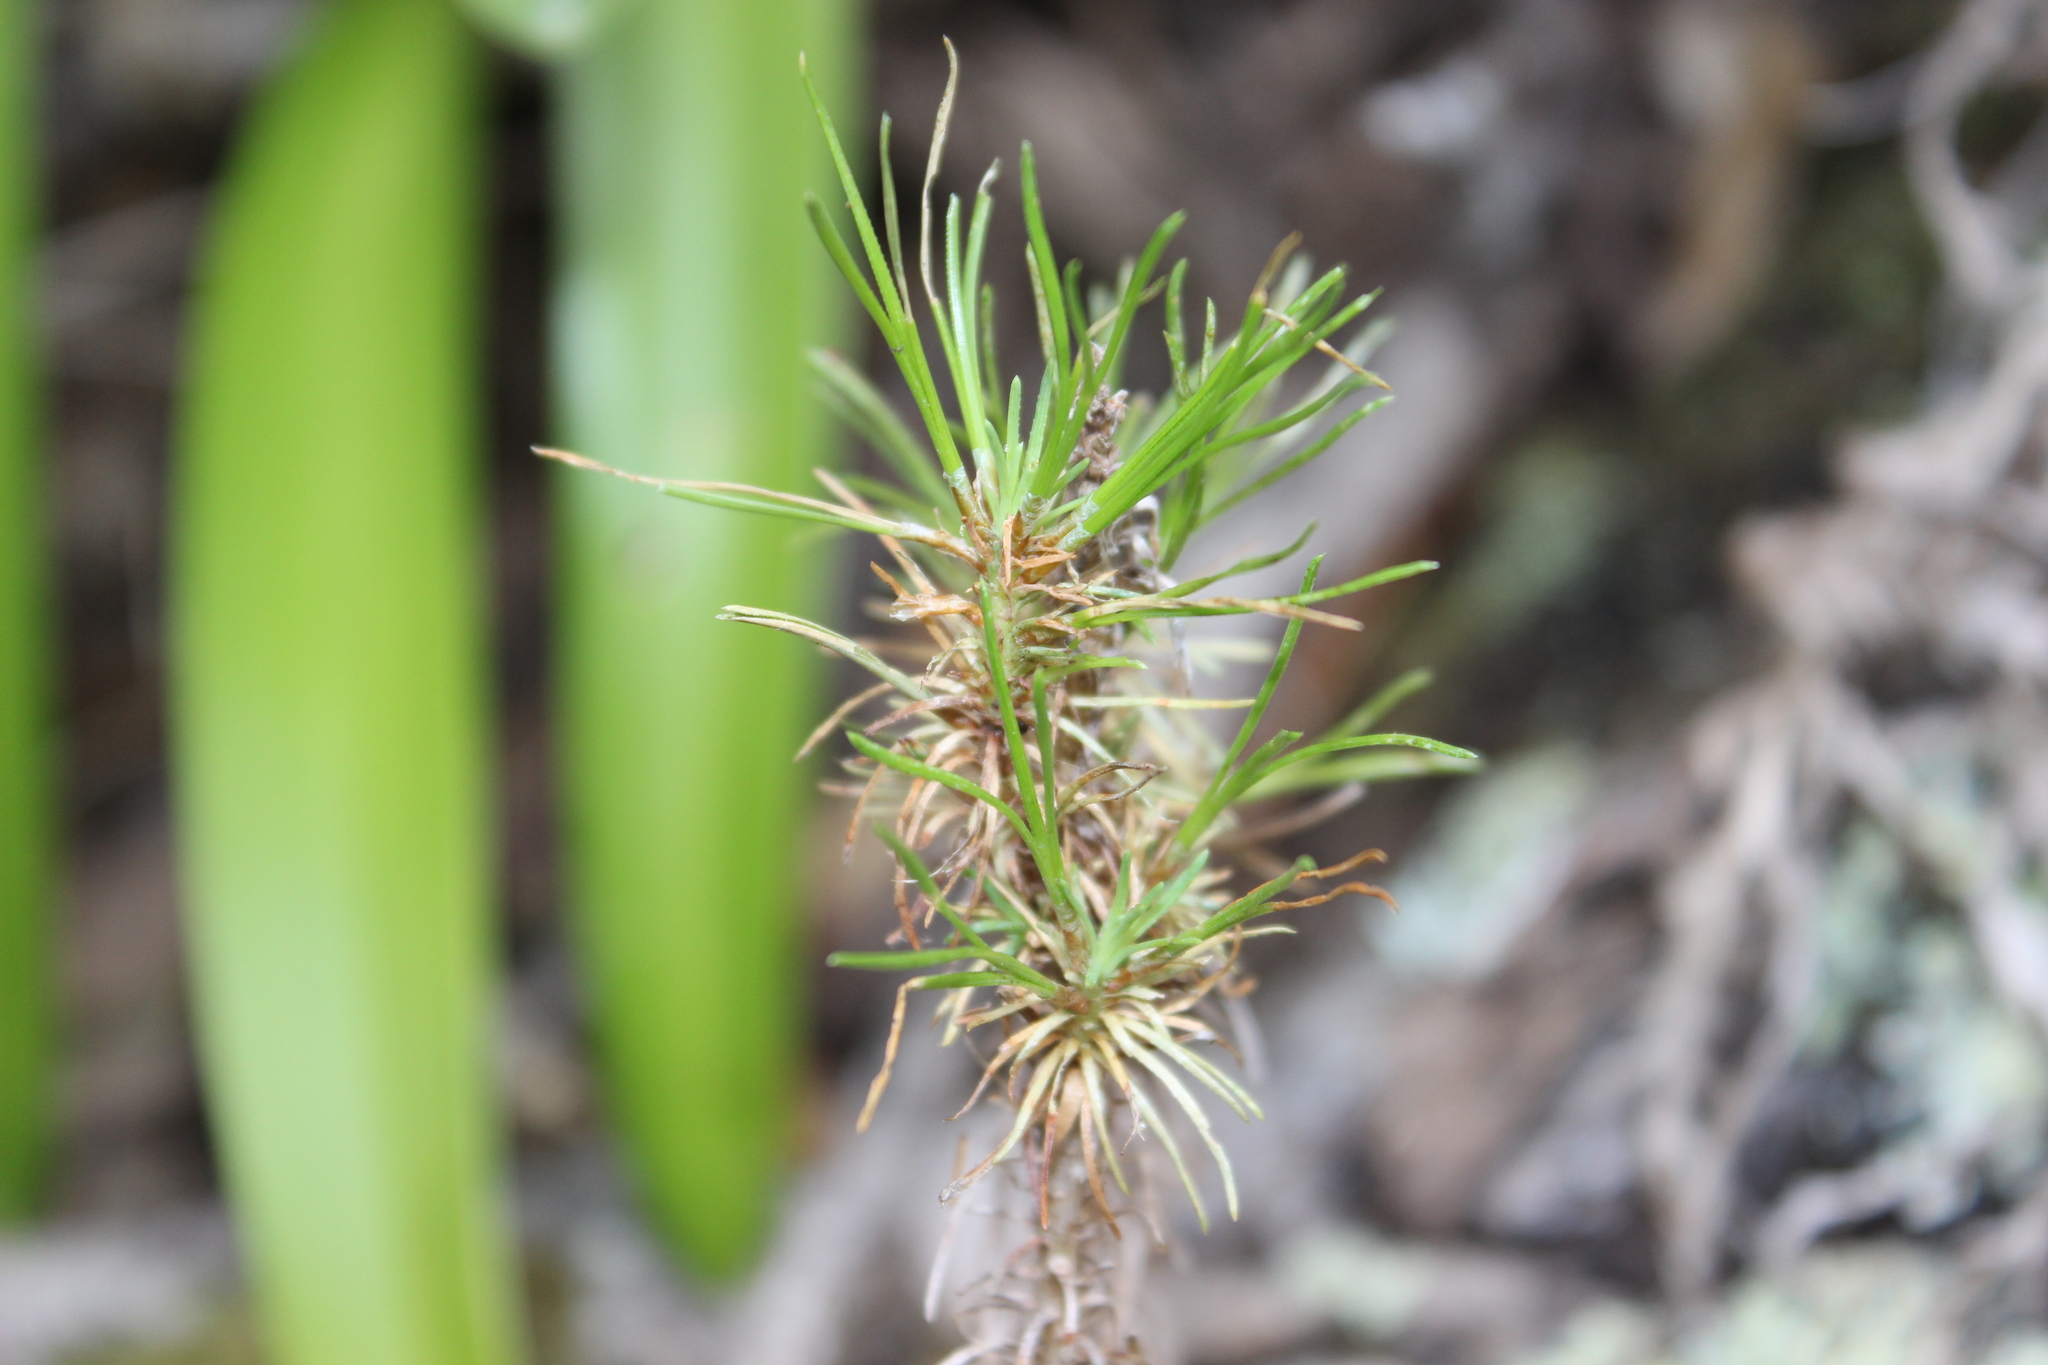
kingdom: Plantae
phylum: Tracheophyta
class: Pinopsida
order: Pinales
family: Pinaceae
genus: Pinus
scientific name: Pinus radiata
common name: Monterey pine
